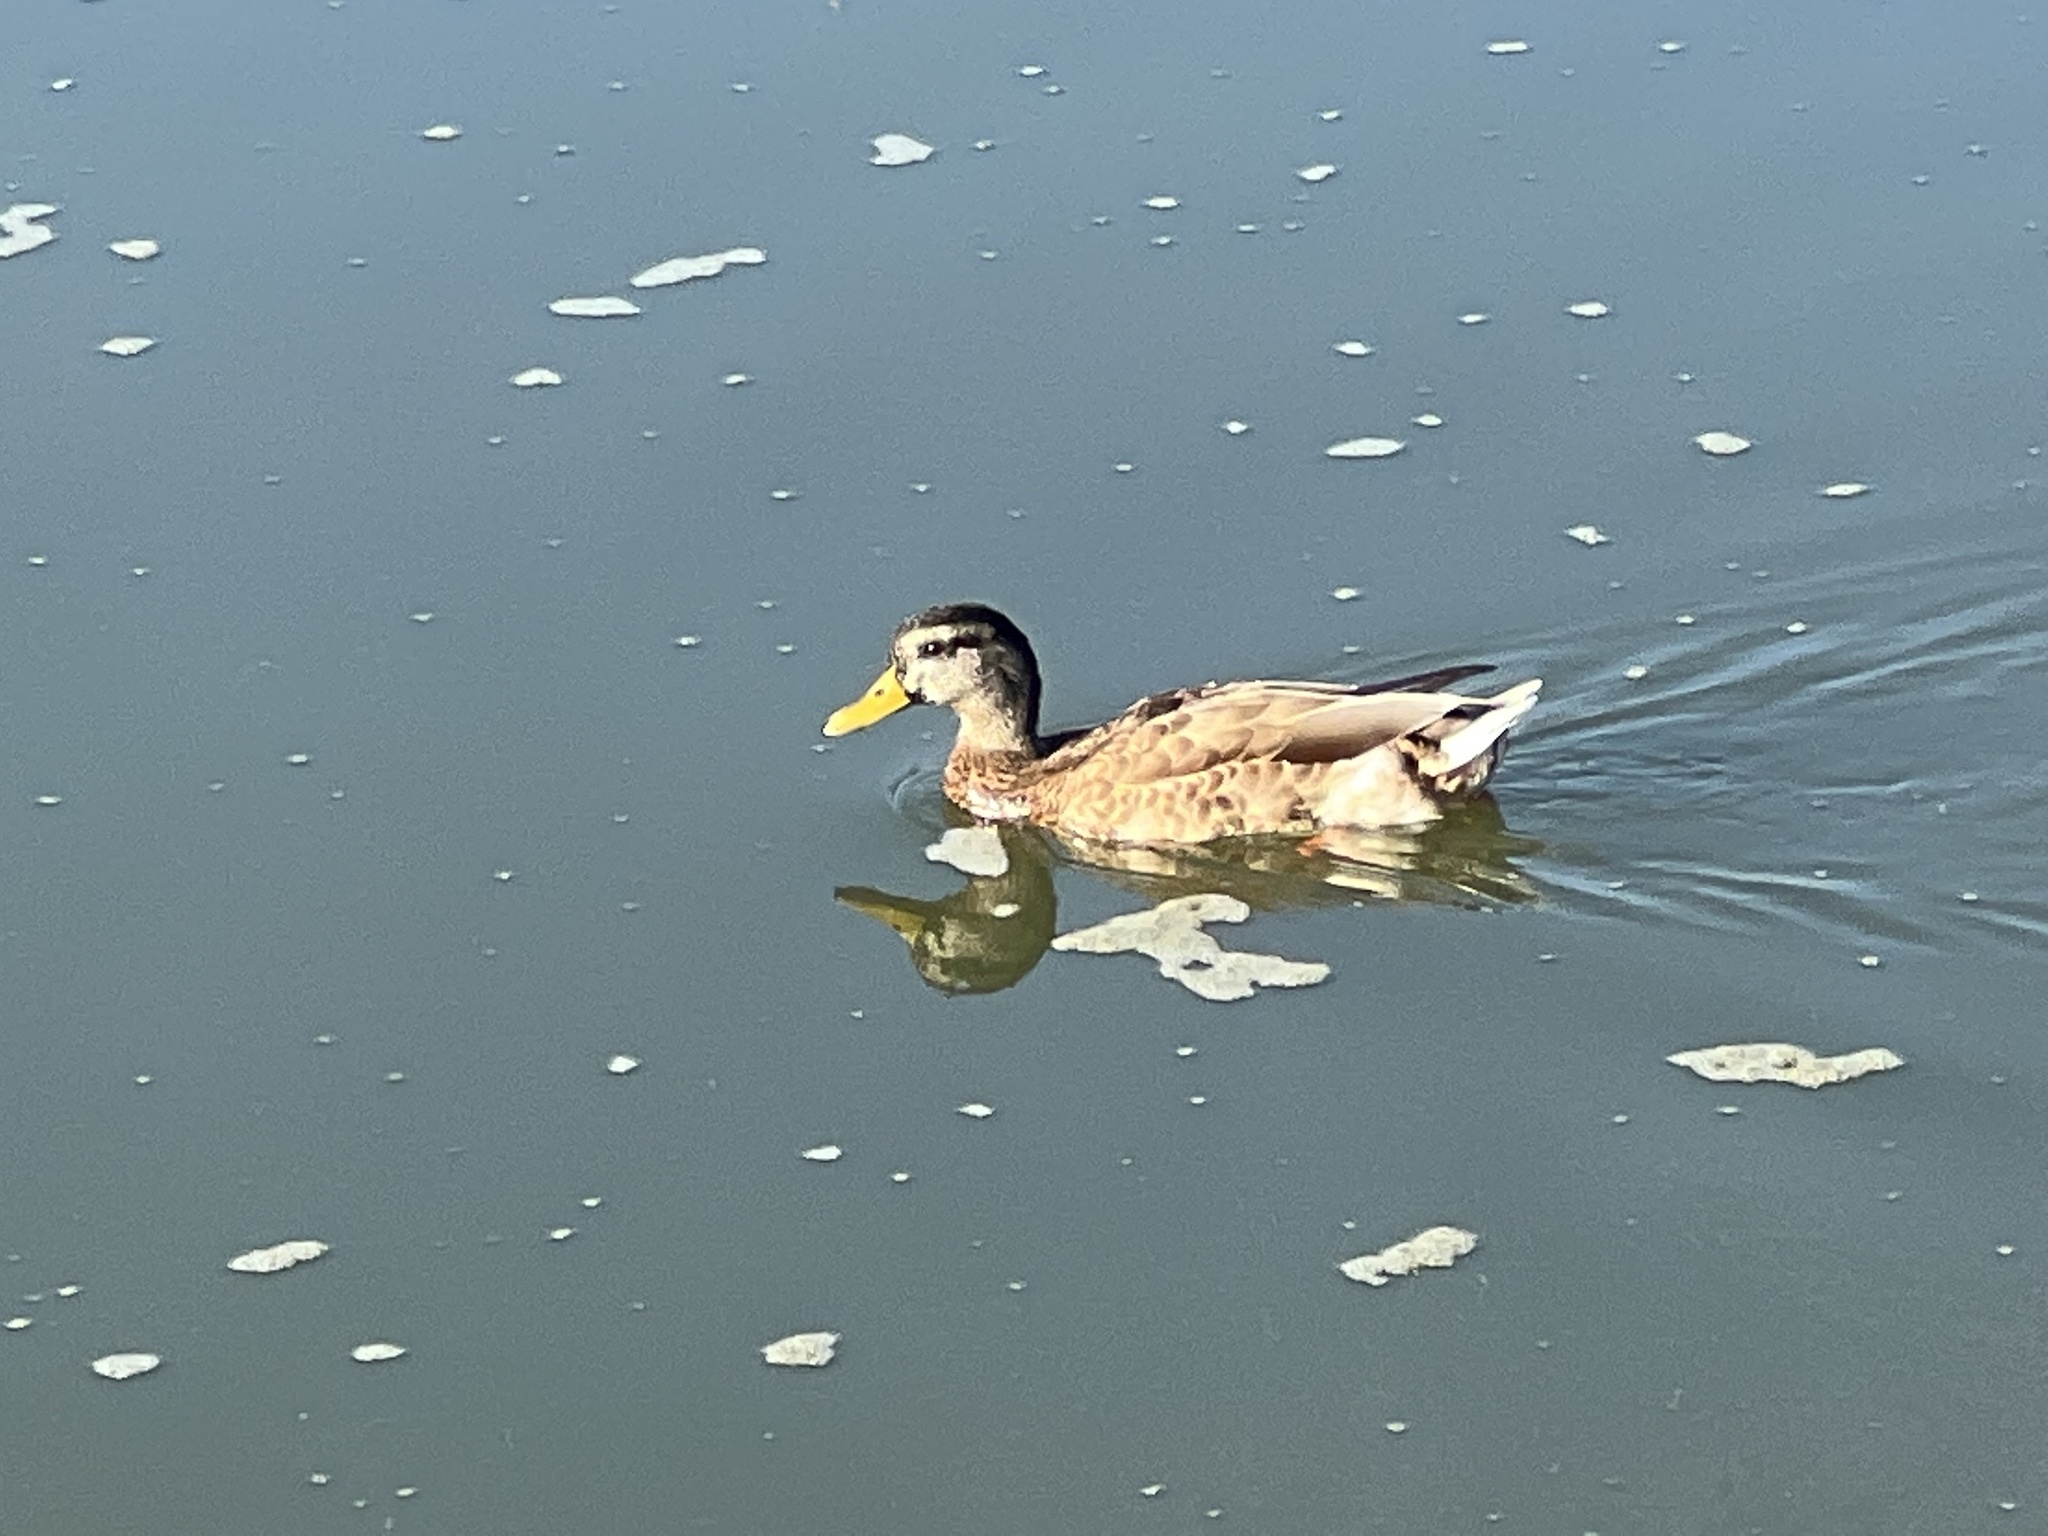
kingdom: Animalia
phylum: Chordata
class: Aves
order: Anseriformes
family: Anatidae
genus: Anas
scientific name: Anas platyrhynchos
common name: Mallard
